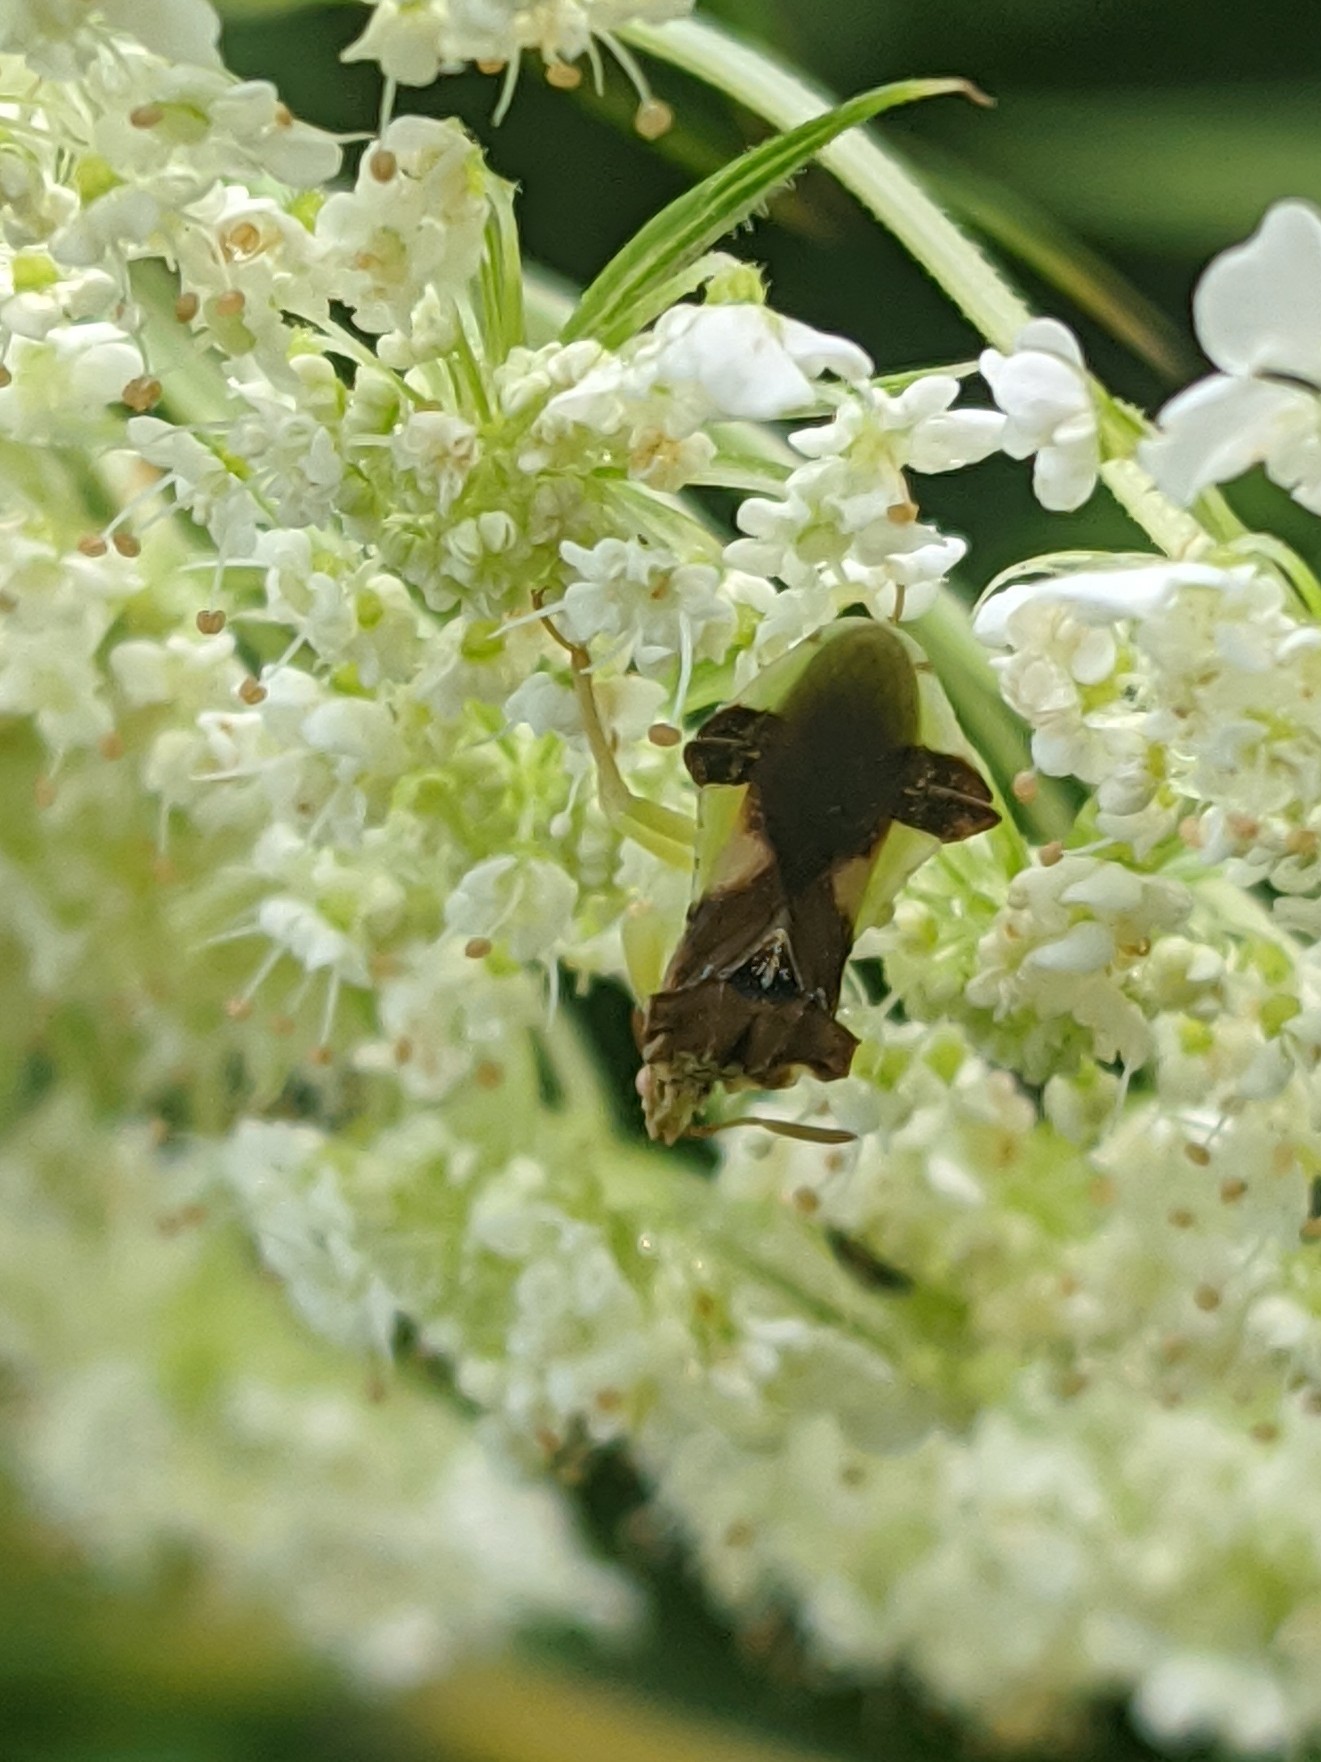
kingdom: Animalia
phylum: Arthropoda
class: Insecta
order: Hemiptera
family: Reduviidae
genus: Phymata
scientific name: Phymata pennsylvanica
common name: Pennsylvania ambush bug
